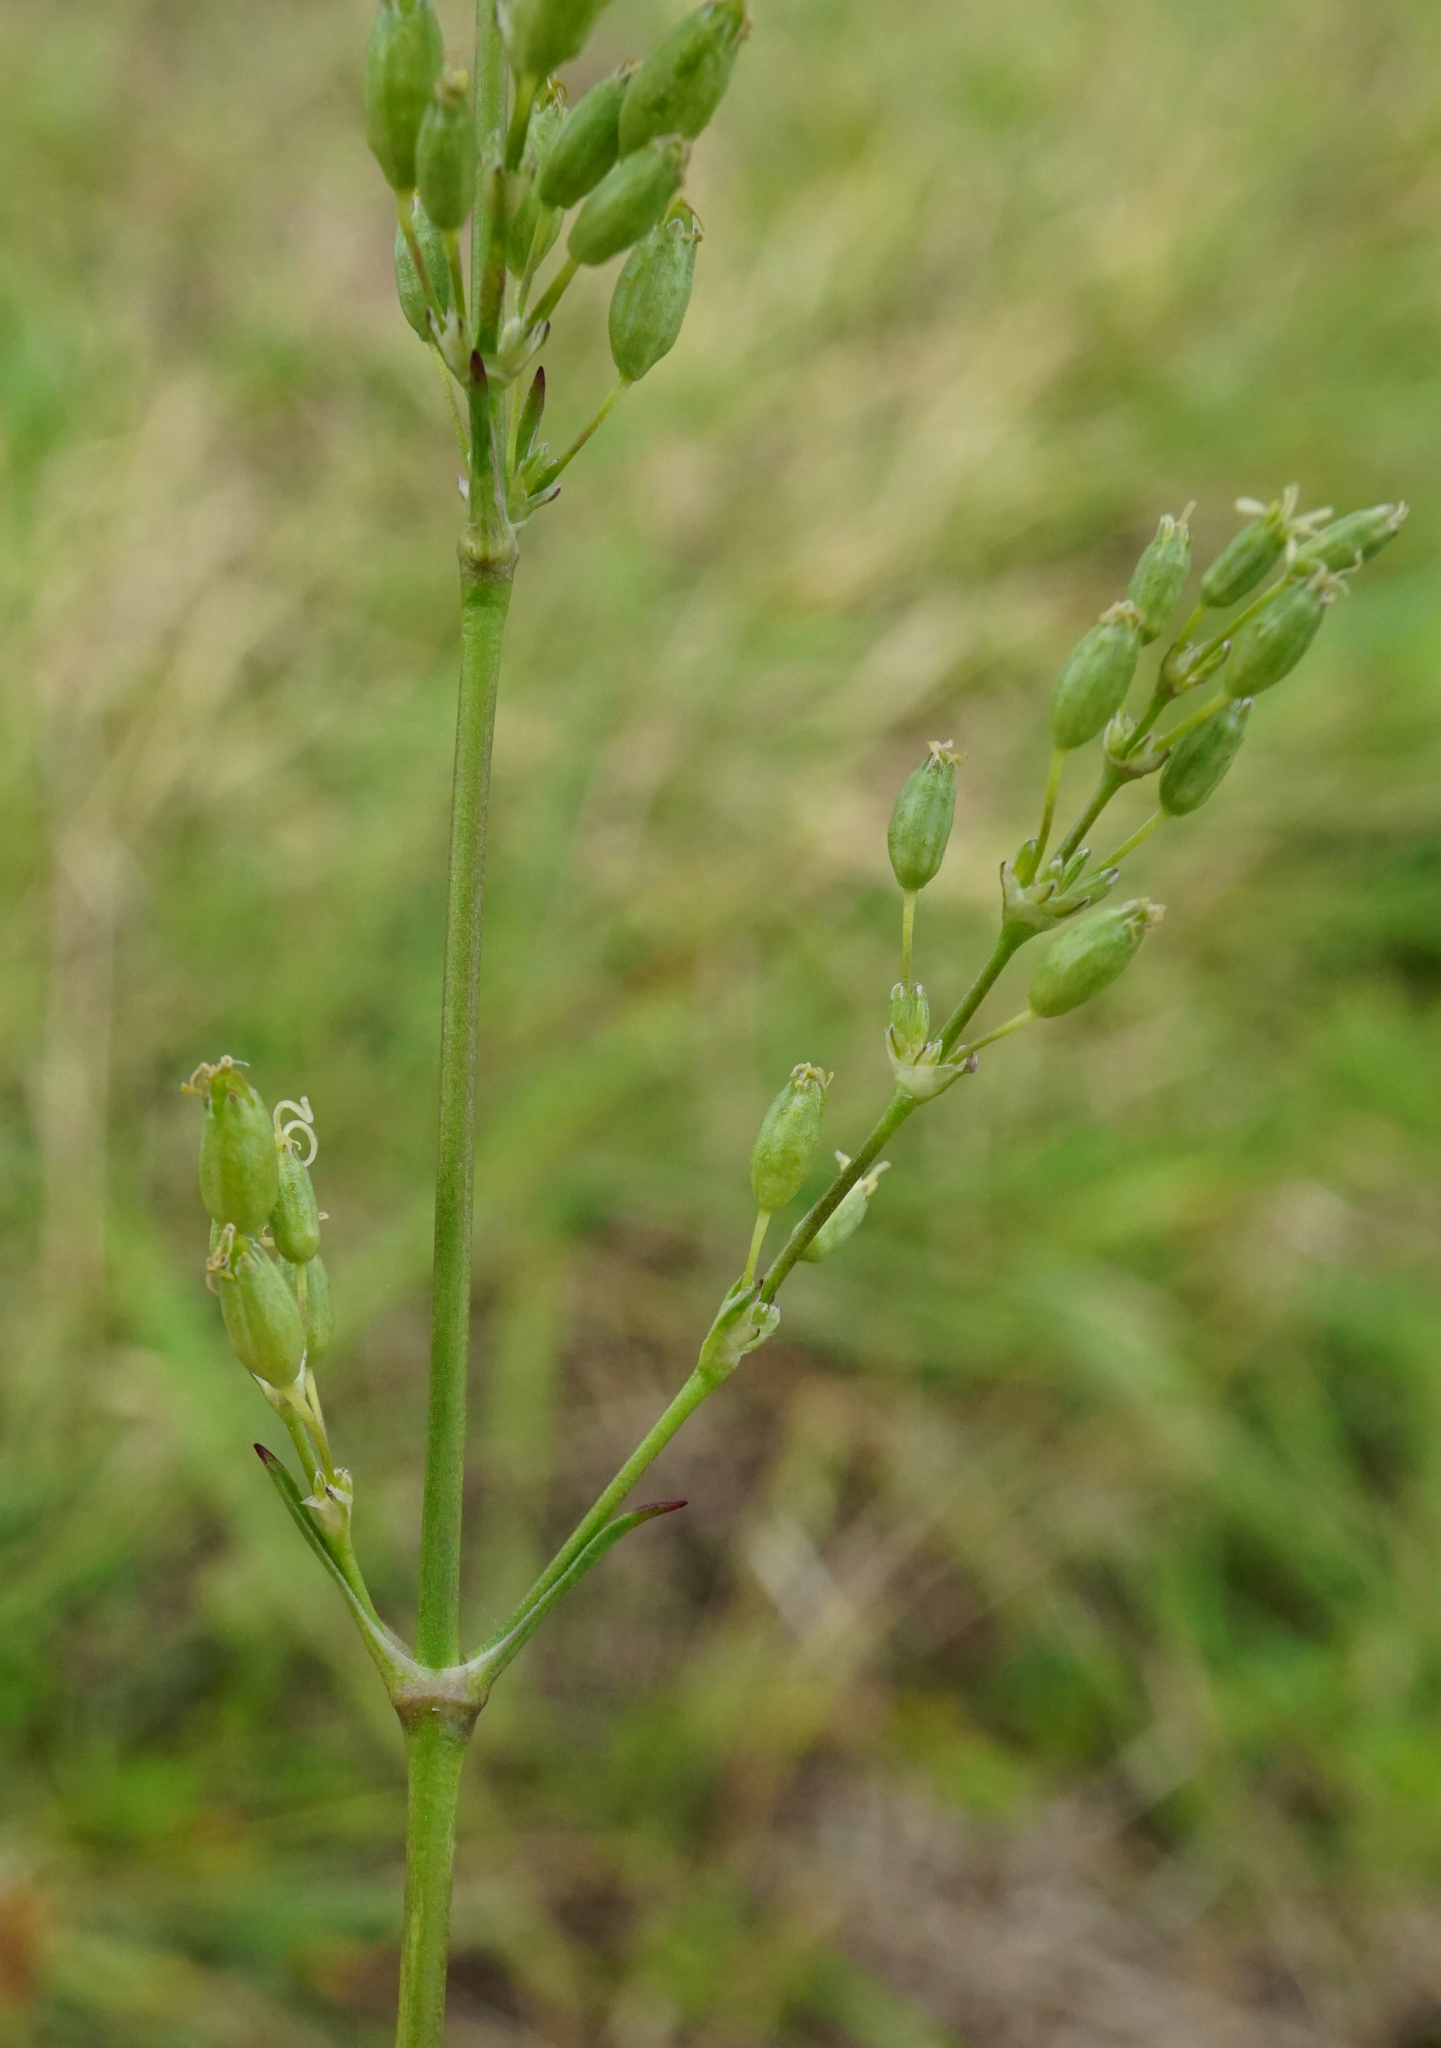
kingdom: Plantae
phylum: Tracheophyta
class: Magnoliopsida
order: Caryophyllales
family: Caryophyllaceae
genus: Silene
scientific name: Silene otites
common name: Spanish catchfly
